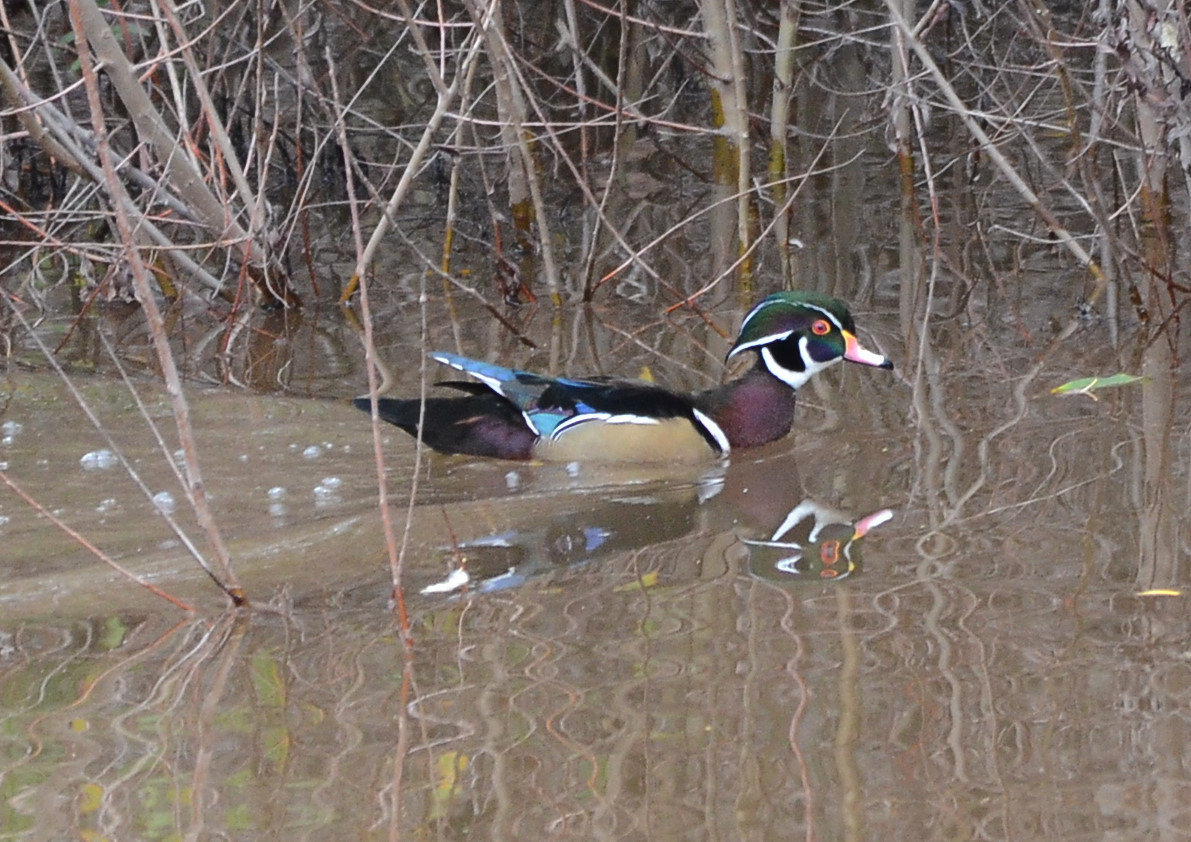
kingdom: Animalia
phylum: Chordata
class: Aves
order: Anseriformes
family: Anatidae
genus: Aix
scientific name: Aix sponsa
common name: Wood duck
